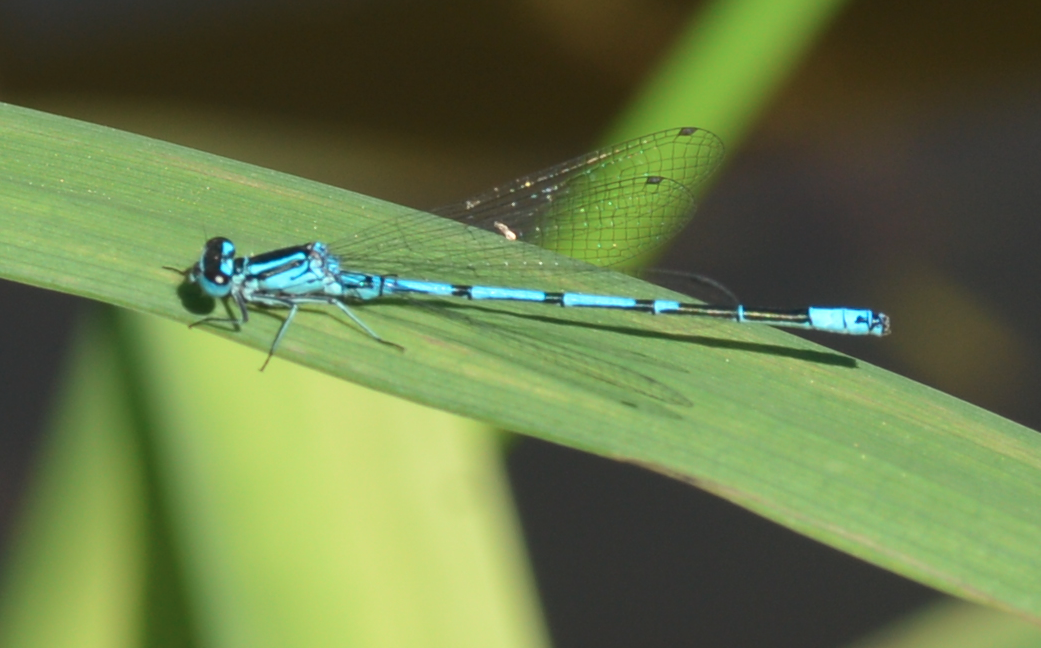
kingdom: Animalia
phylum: Arthropoda
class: Insecta
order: Odonata
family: Coenagrionidae
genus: Coenagrion
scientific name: Coenagrion puella
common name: Azure damselfly
